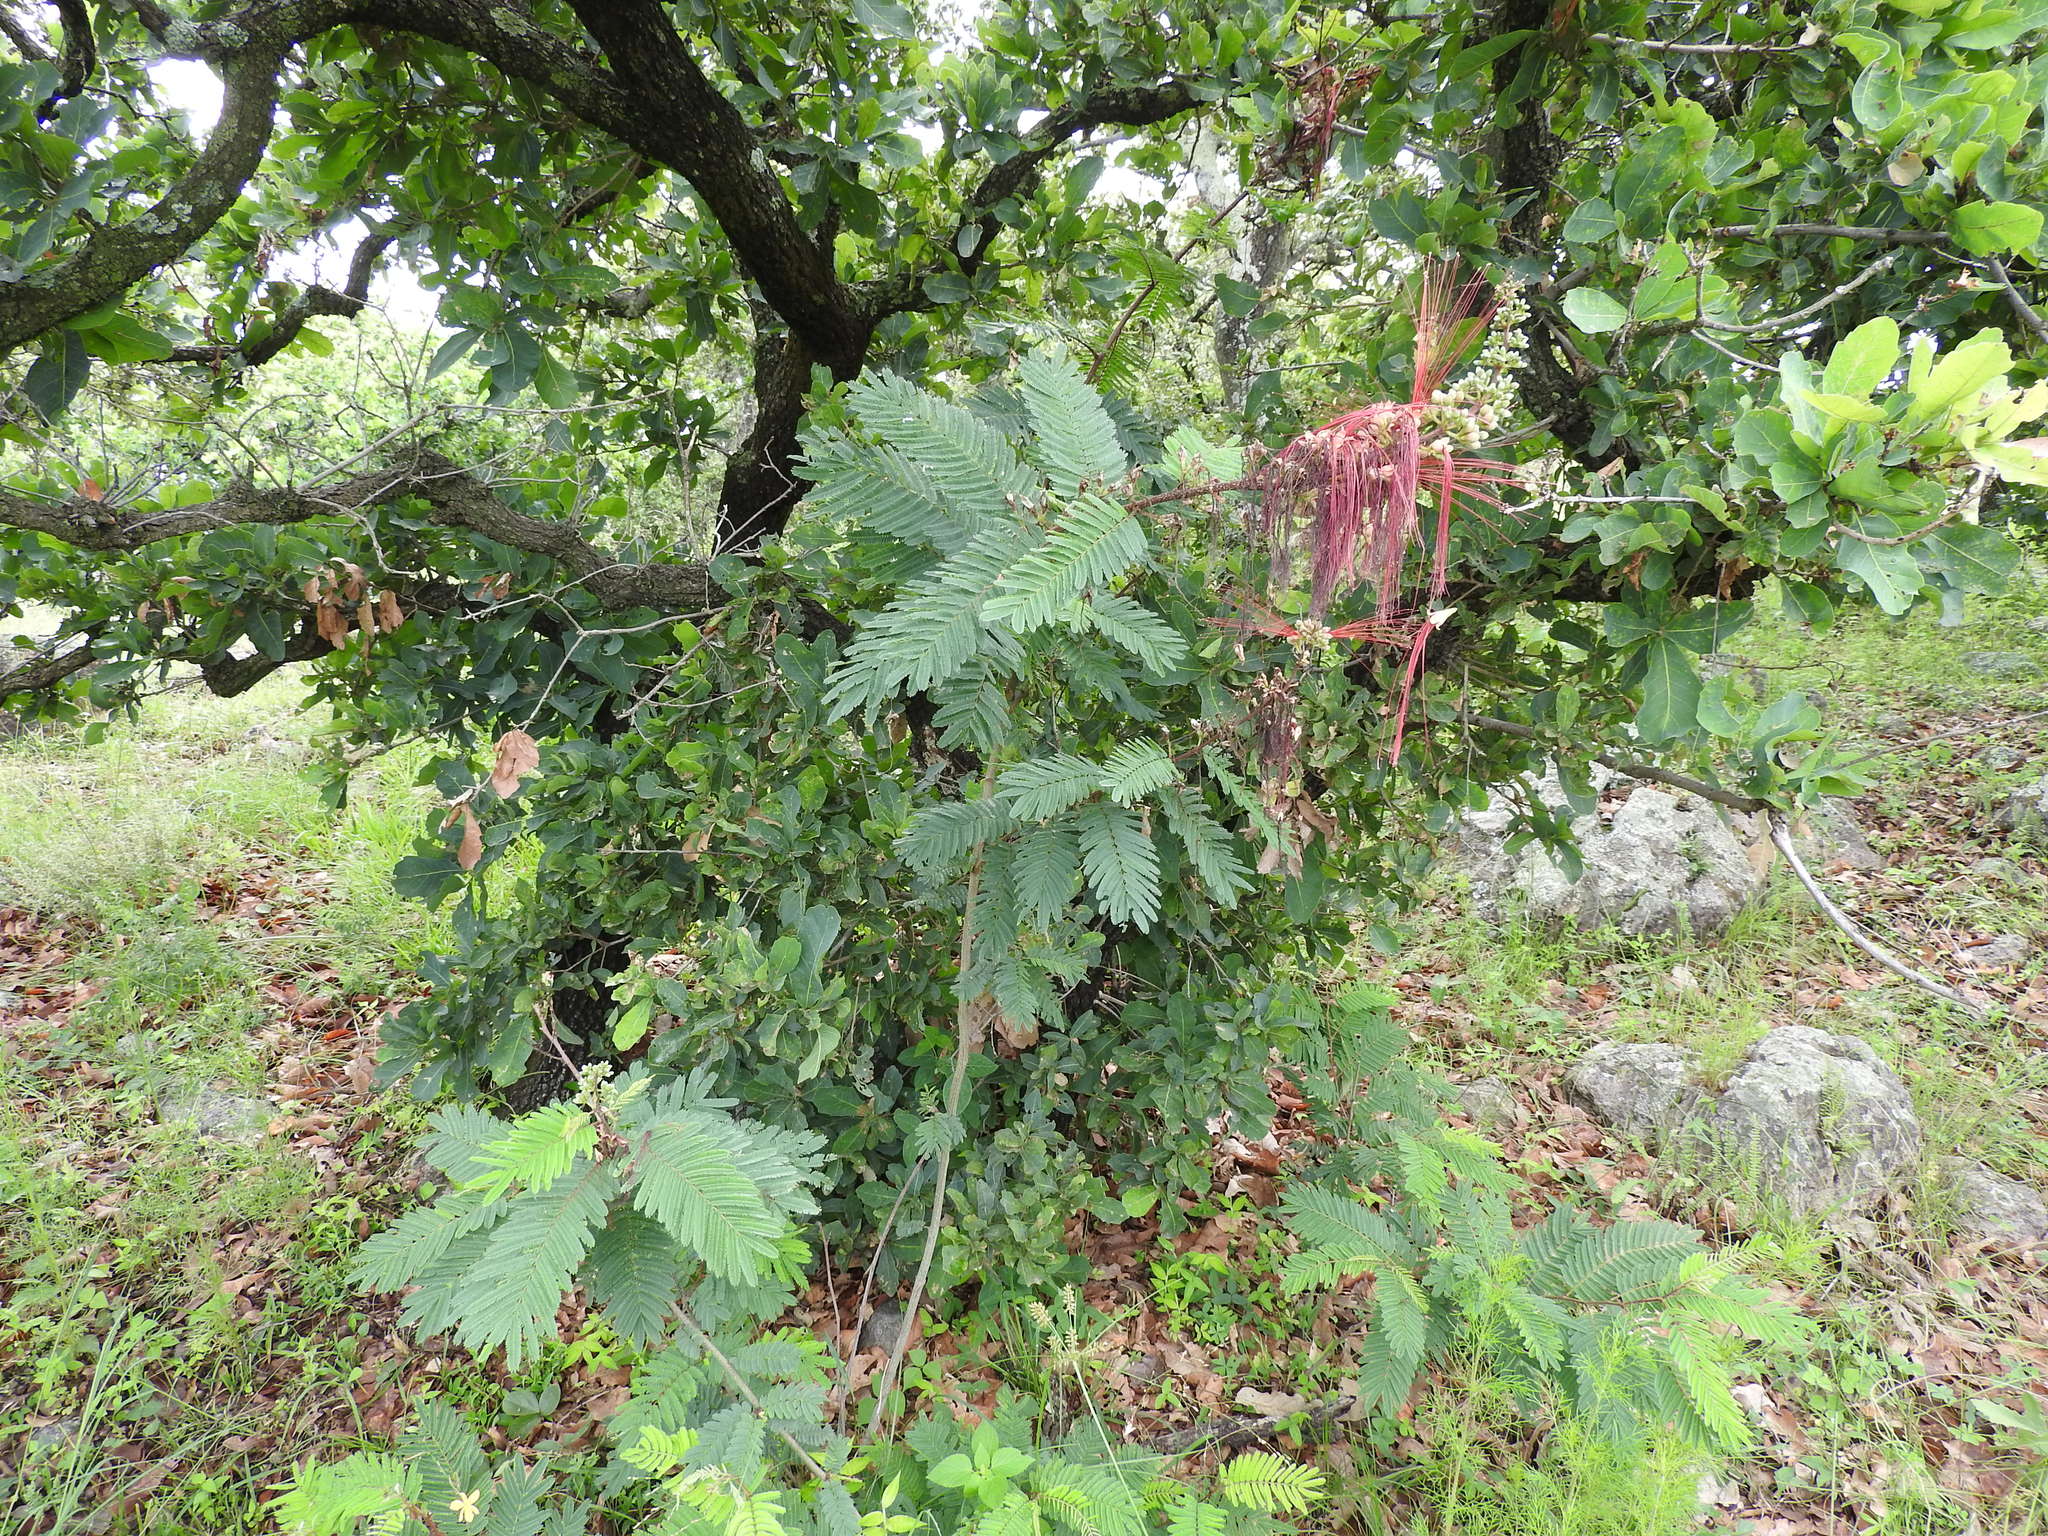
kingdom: Plantae
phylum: Tracheophyta
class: Magnoliopsida
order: Fabales
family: Fabaceae
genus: Calliandra
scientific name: Calliandra houstoniana
